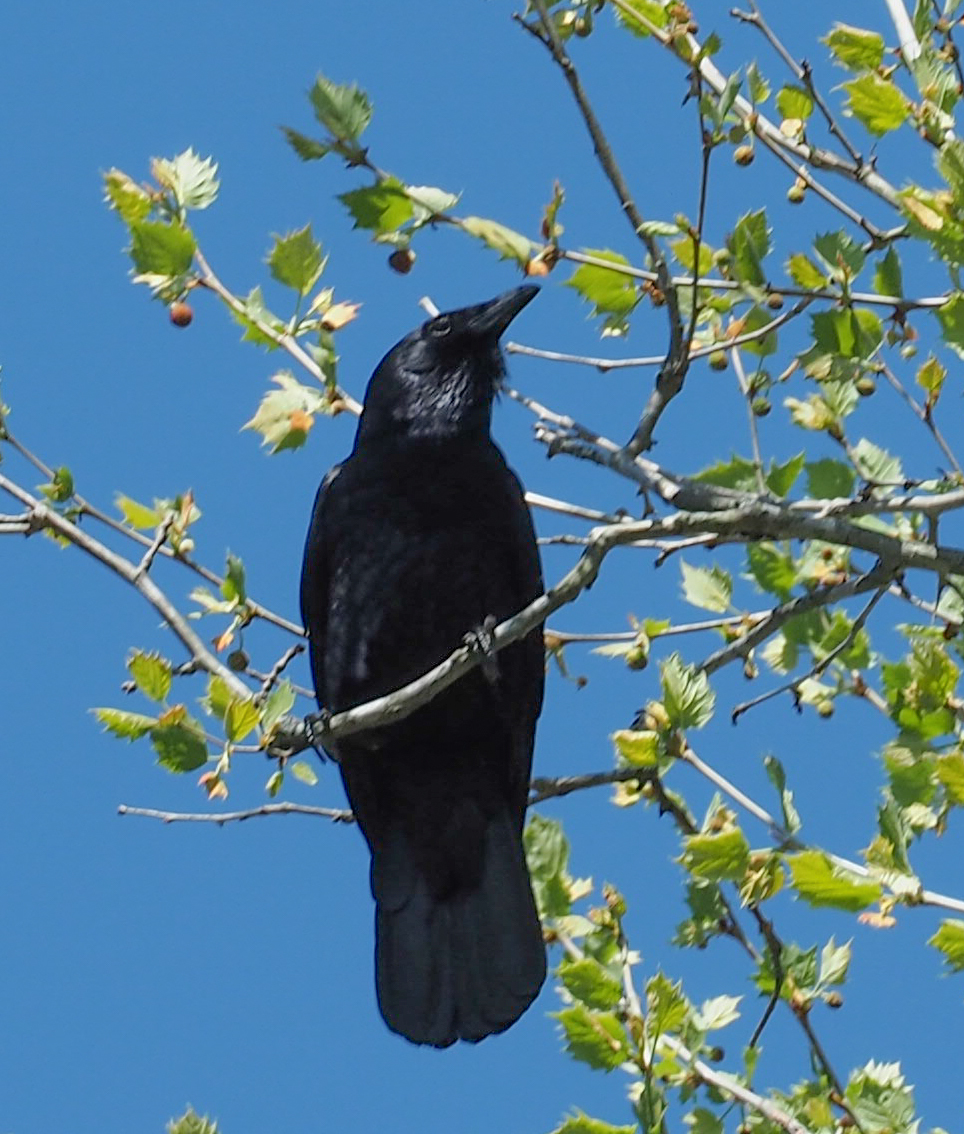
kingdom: Animalia
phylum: Chordata
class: Aves
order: Passeriformes
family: Corvidae
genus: Corvus
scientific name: Corvus brachyrhynchos
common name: American crow
